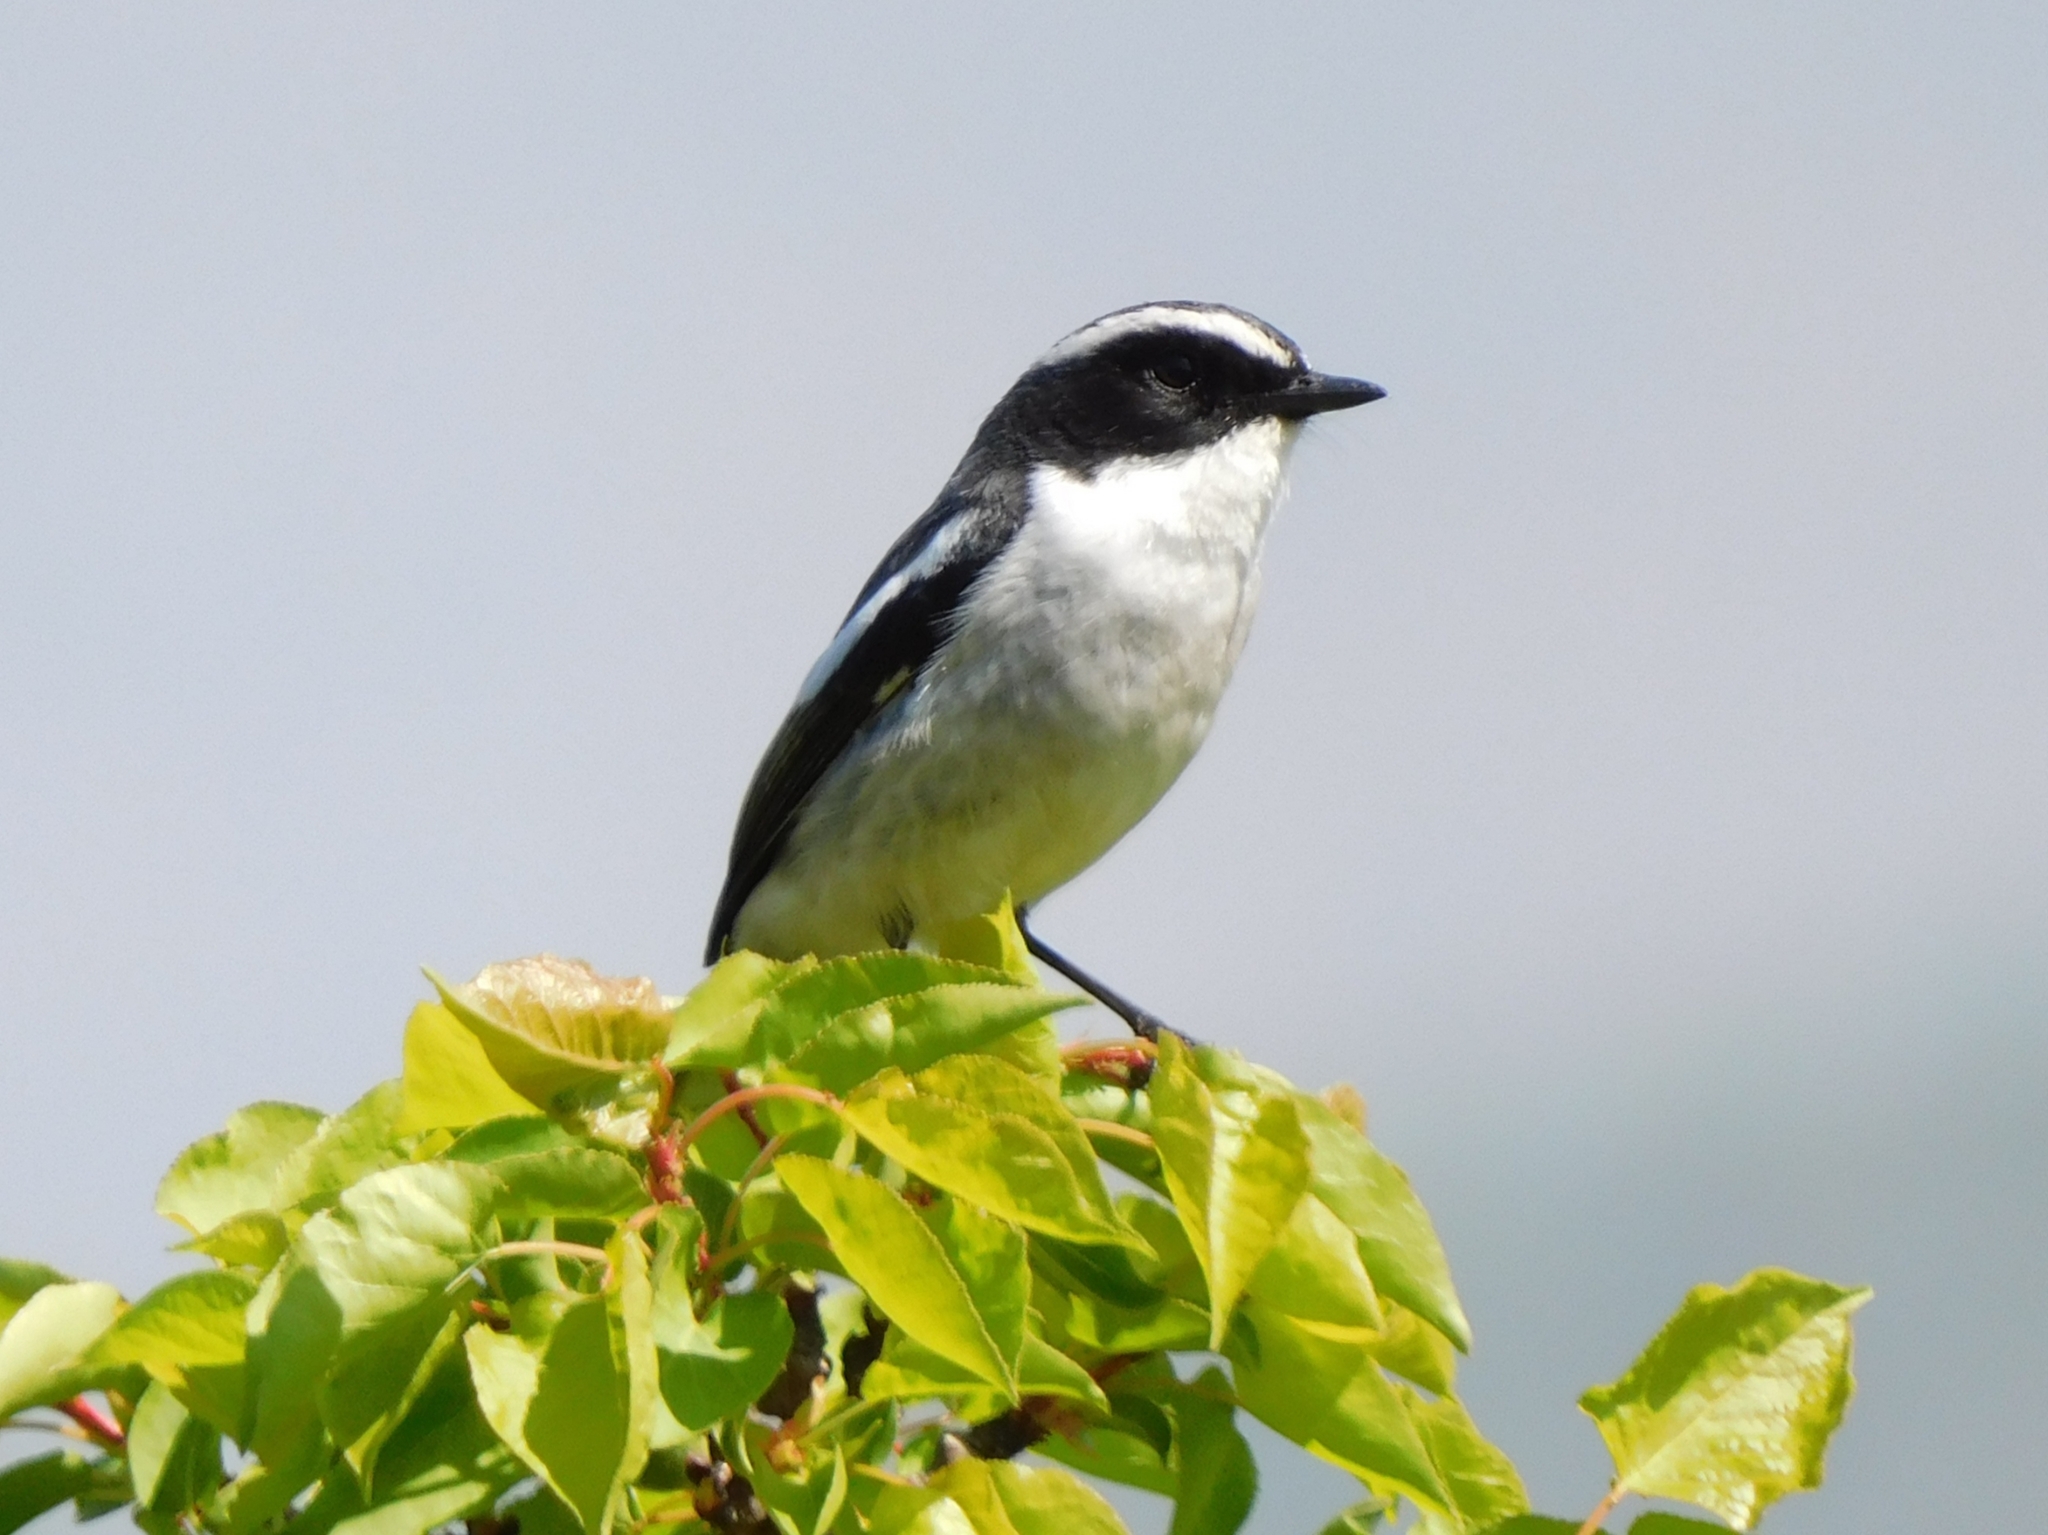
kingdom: Animalia
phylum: Chordata
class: Aves
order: Passeriformes
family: Muscicapidae
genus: Saxicola
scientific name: Saxicola ferreus
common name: Grey bush chat
